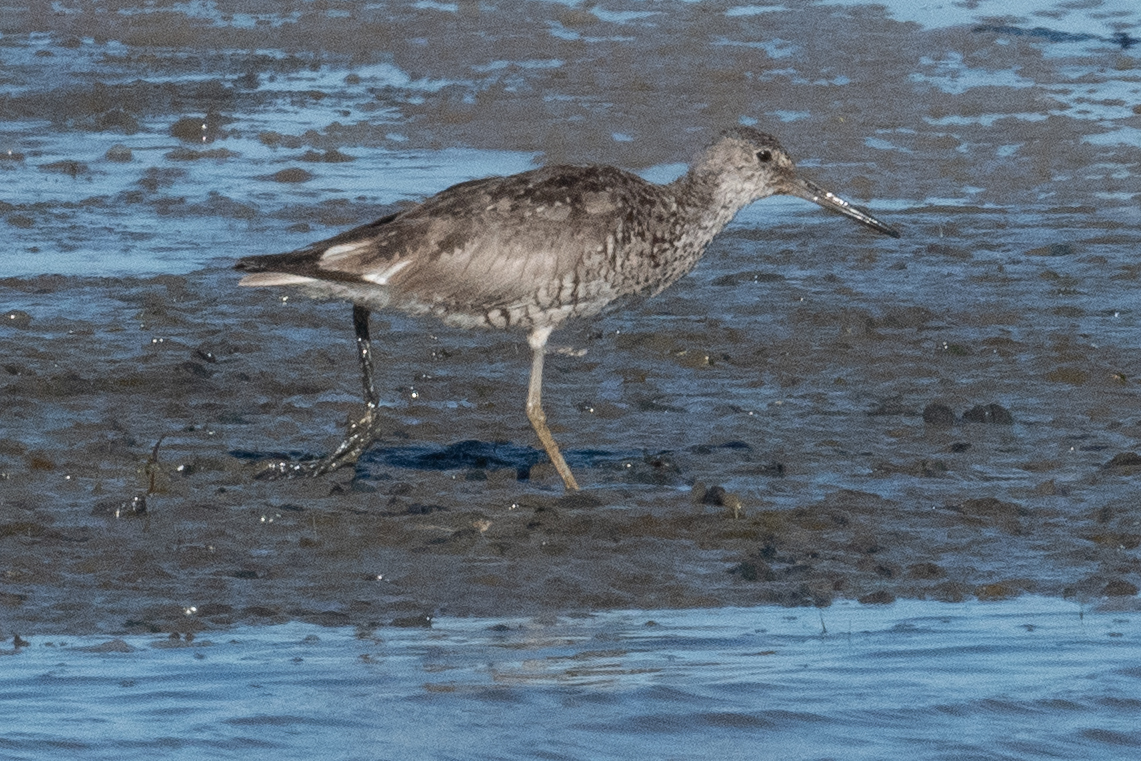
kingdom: Animalia
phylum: Chordata
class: Aves
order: Charadriiformes
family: Scolopacidae
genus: Tringa
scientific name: Tringa semipalmata
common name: Willet
